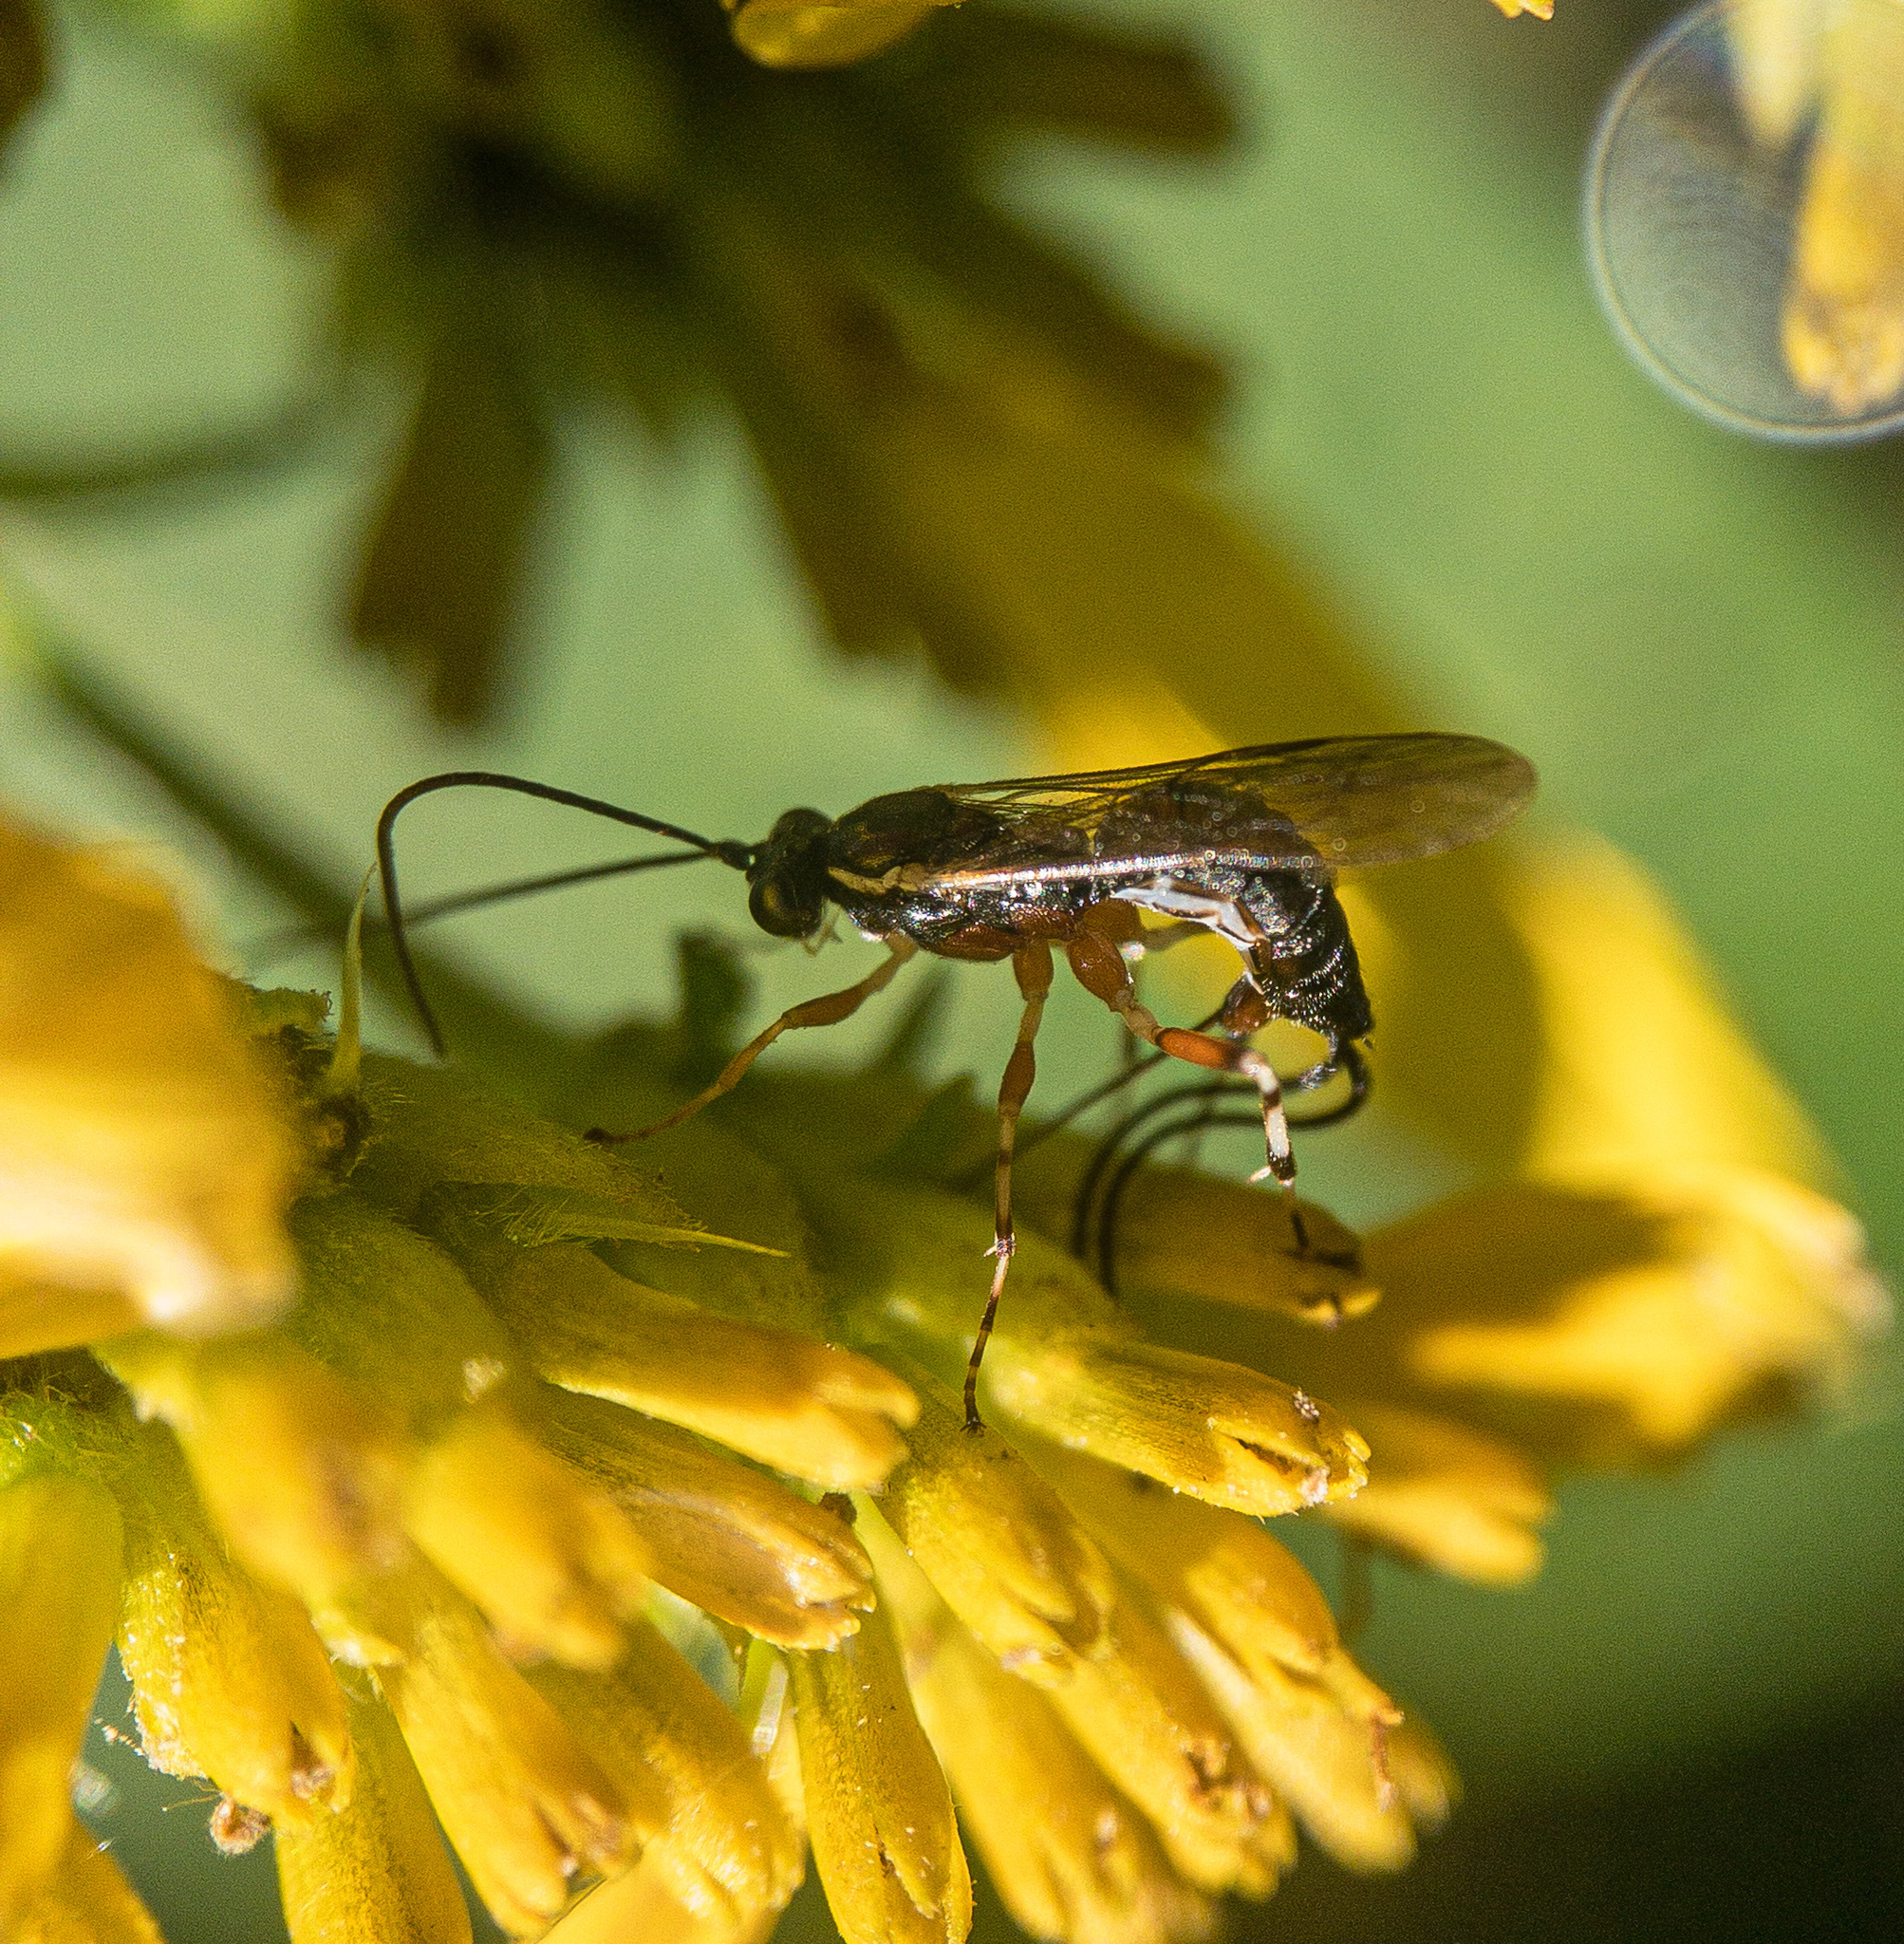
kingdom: Animalia
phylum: Arthropoda
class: Insecta
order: Hymenoptera
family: Ichneumonidae
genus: Glypta
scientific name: Glypta
